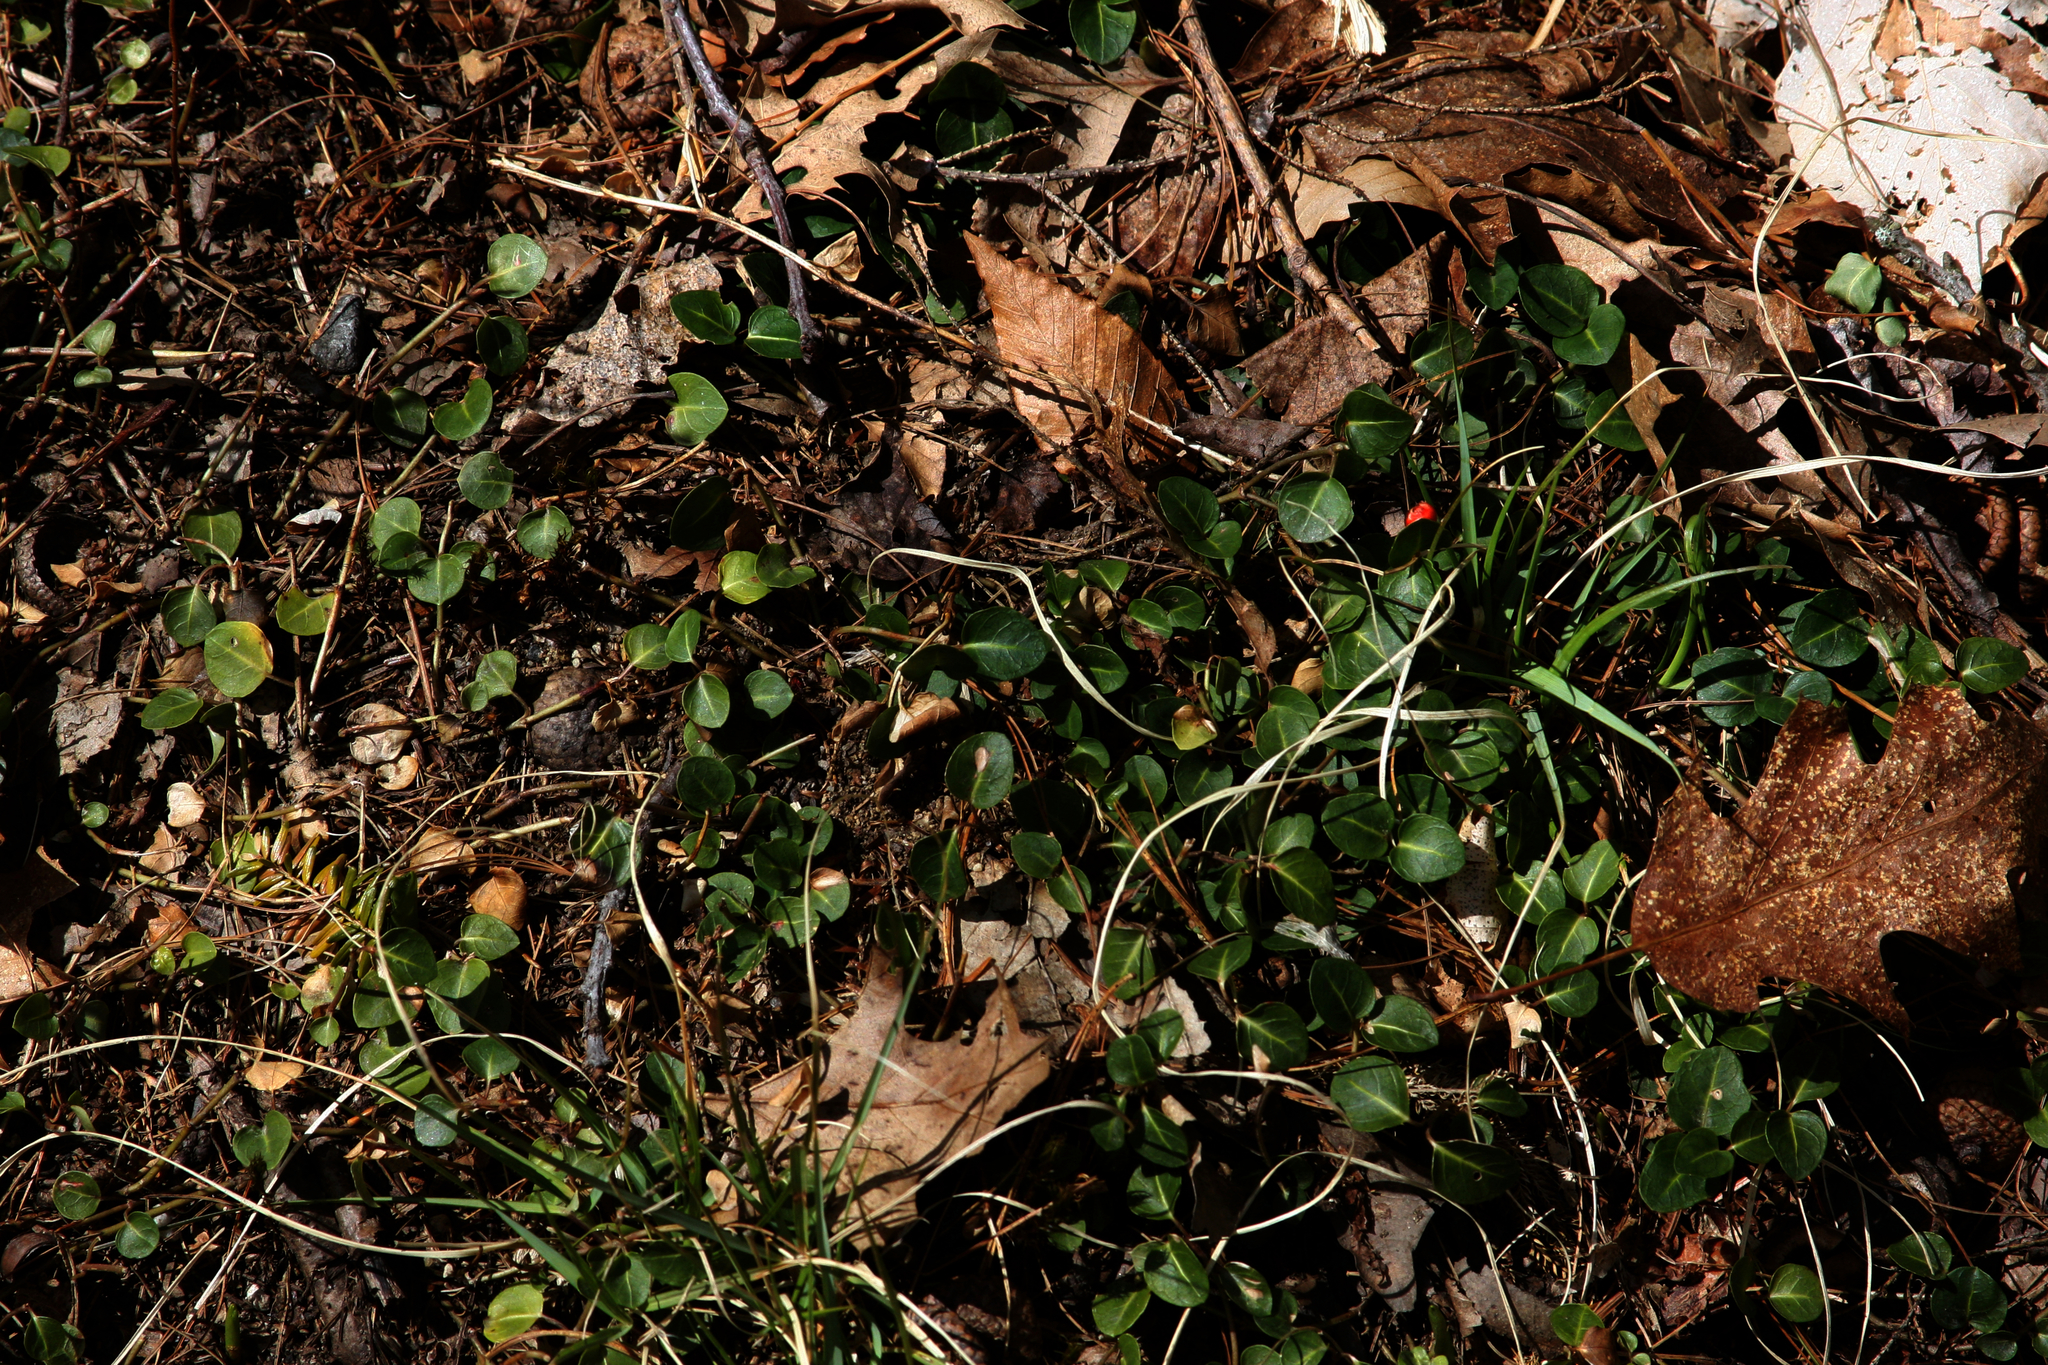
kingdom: Plantae
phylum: Tracheophyta
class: Magnoliopsida
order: Gentianales
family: Rubiaceae
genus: Mitchella
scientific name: Mitchella repens
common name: Partridge-berry
